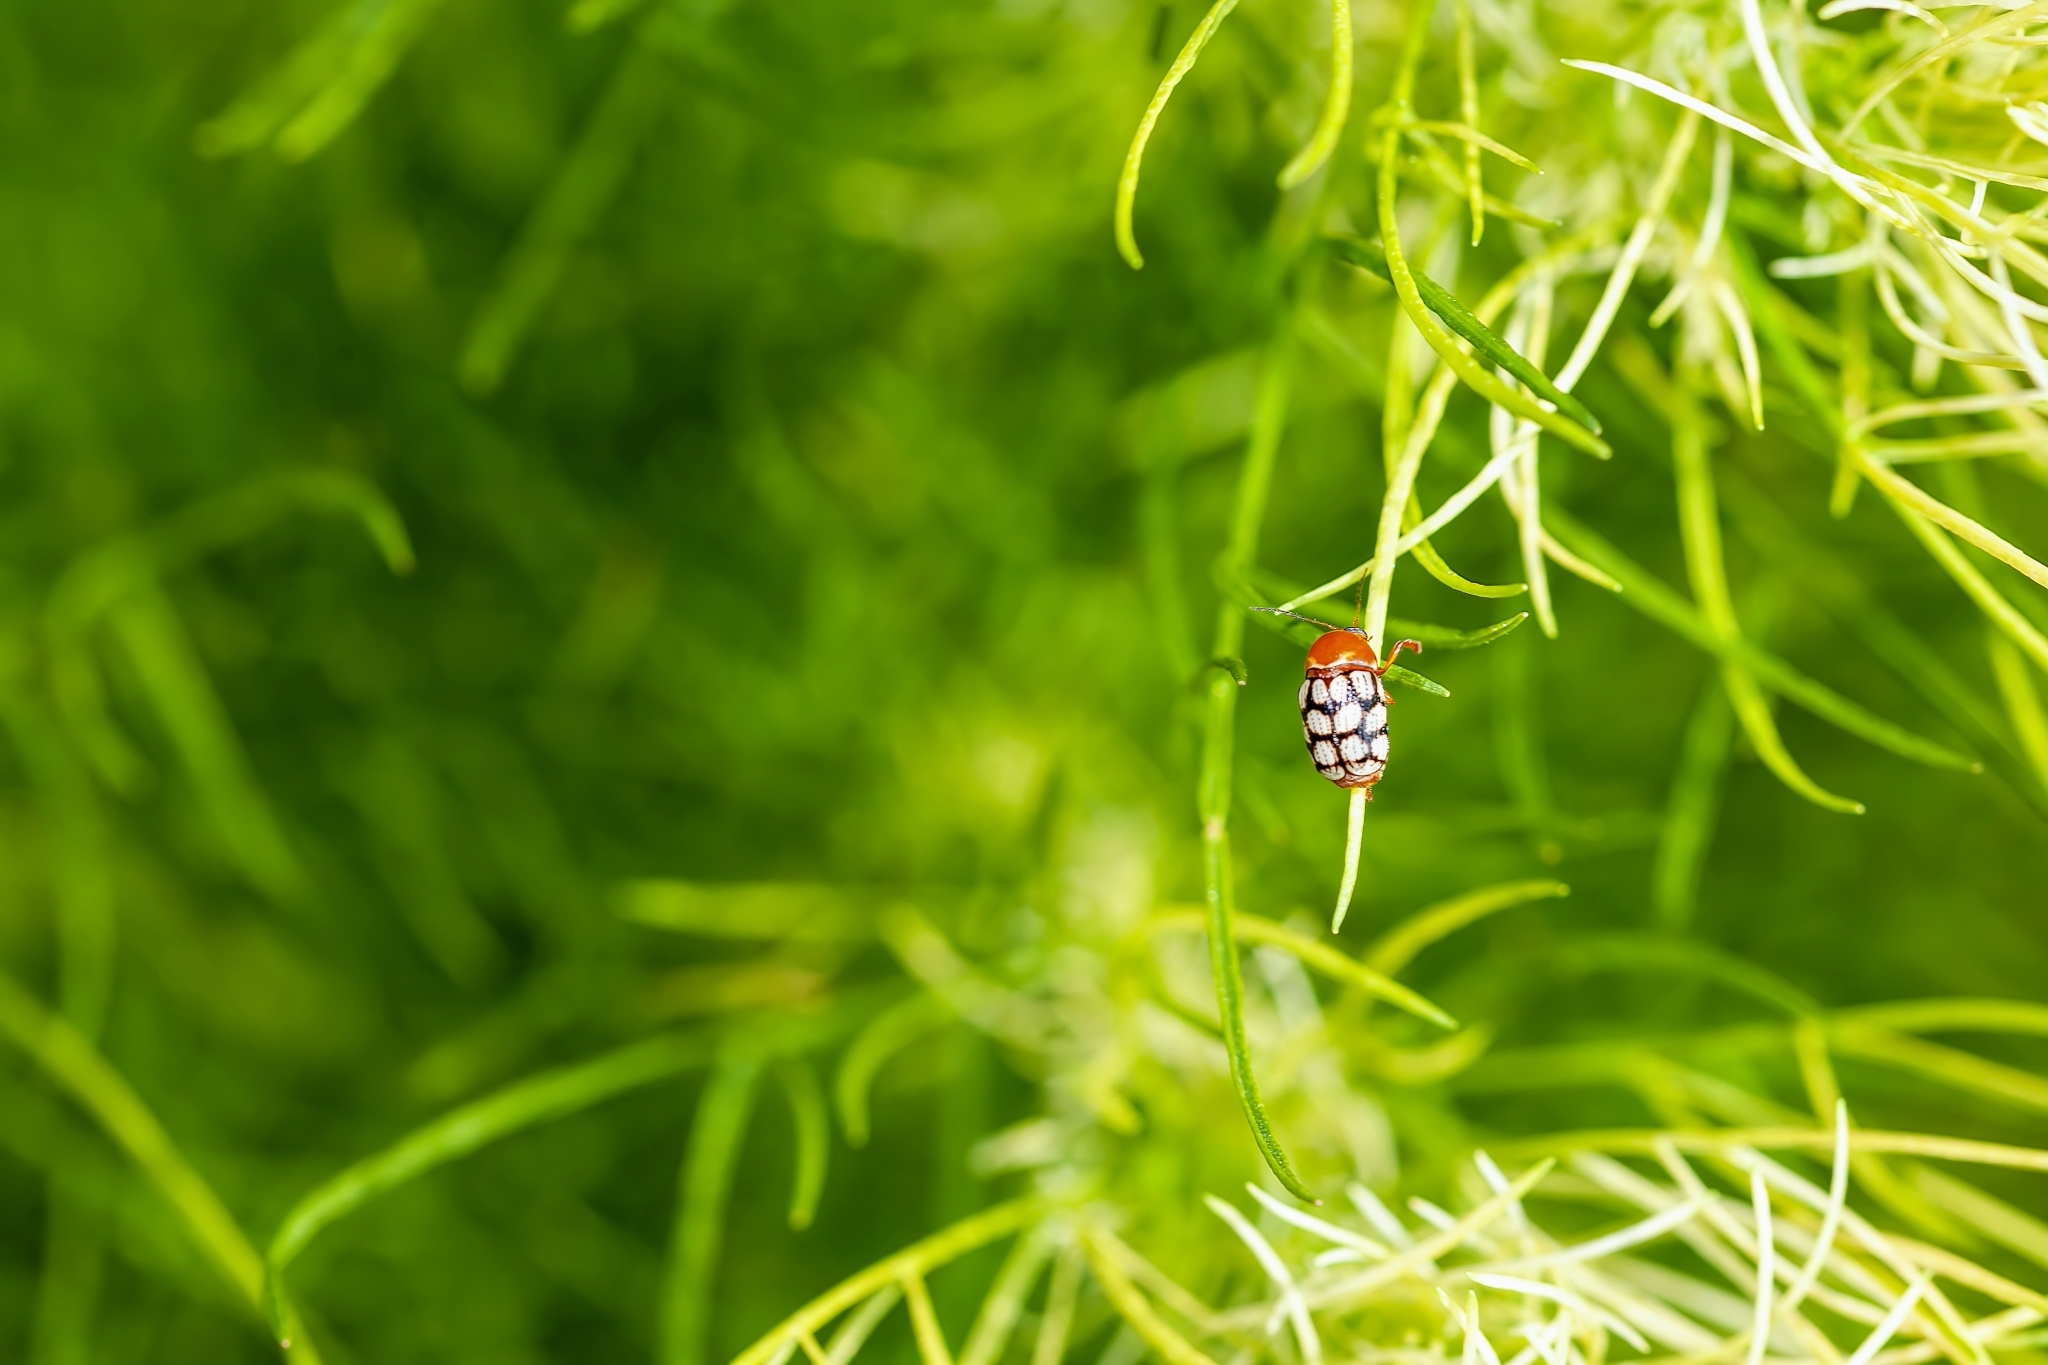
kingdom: Animalia
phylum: Arthropoda
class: Insecta
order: Coleoptera
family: Chrysomelidae
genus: Cryptocephalus
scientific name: Cryptocephalus guttulatus
